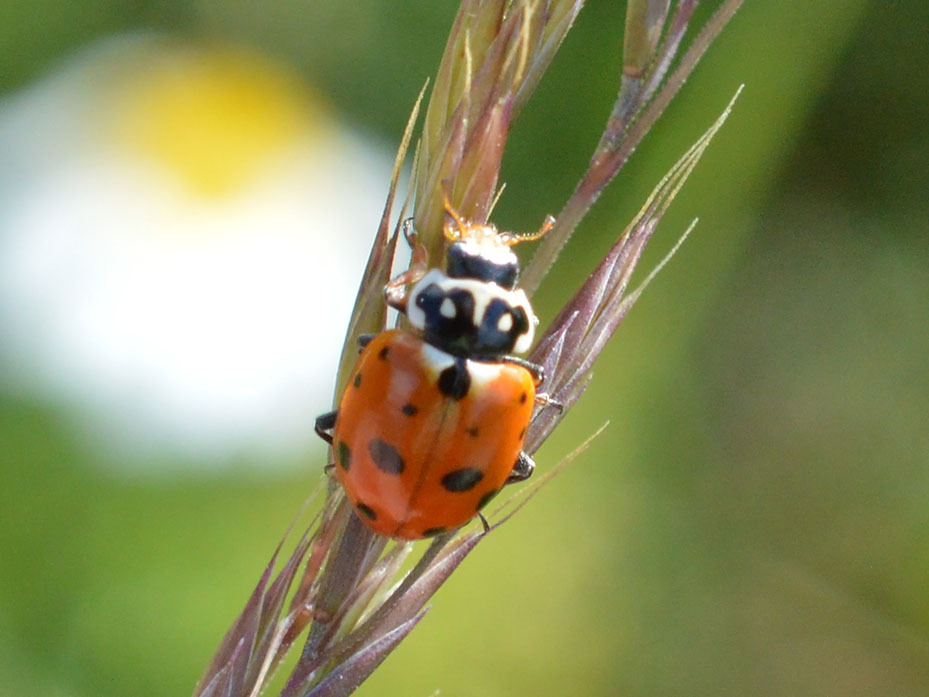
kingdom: Animalia
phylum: Arthropoda
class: Insecta
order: Coleoptera
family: Coccinellidae
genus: Hippodamia
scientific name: Hippodamia variegata
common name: Ladybird beetle
